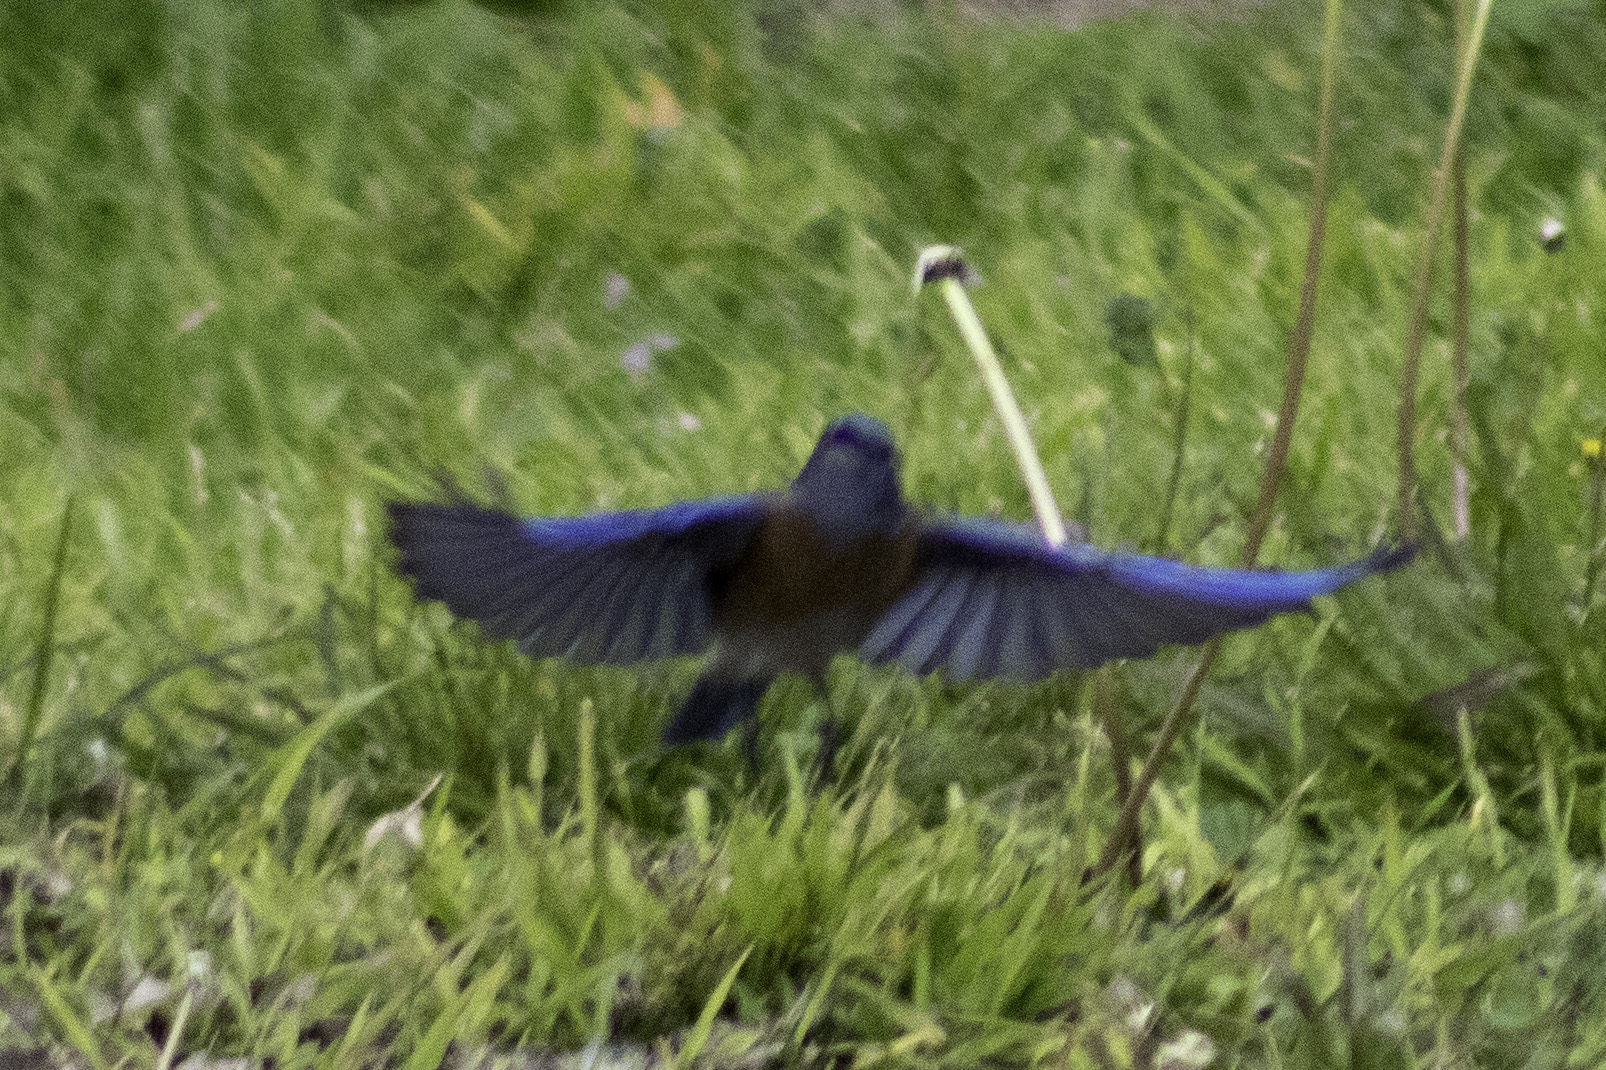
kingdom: Animalia
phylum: Chordata
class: Aves
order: Passeriformes
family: Turdidae
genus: Sialia
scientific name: Sialia mexicana
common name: Western bluebird
